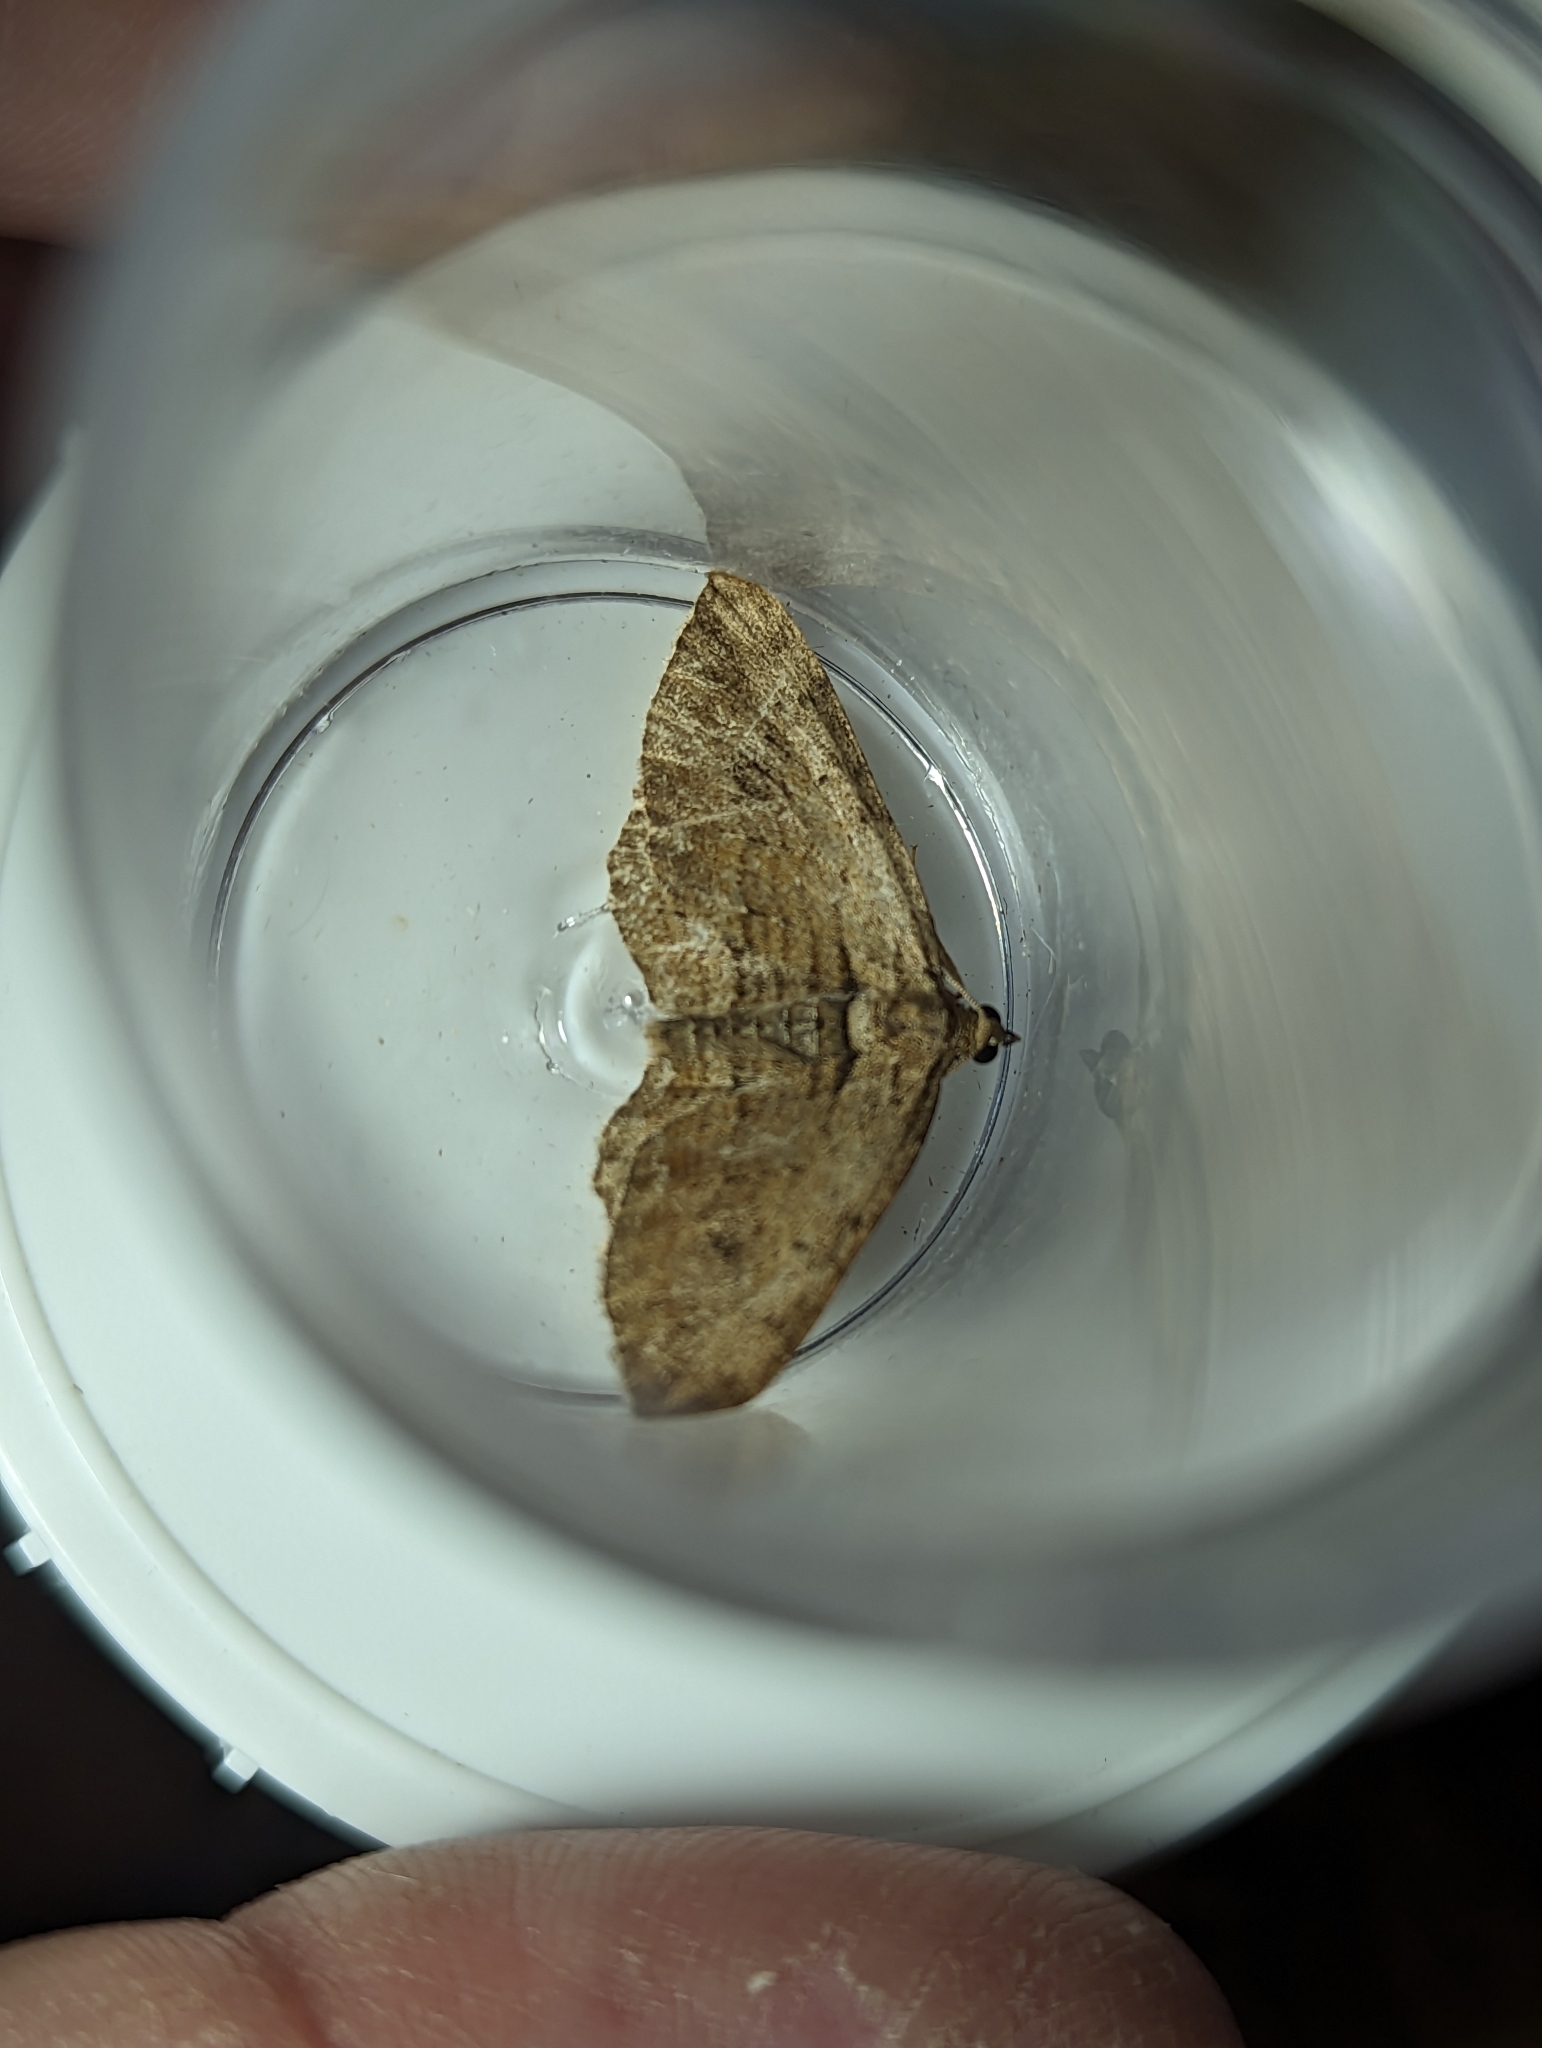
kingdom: Animalia
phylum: Arthropoda
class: Insecta
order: Lepidoptera
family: Geometridae
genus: Horisme
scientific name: Horisme tersata
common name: Fern
